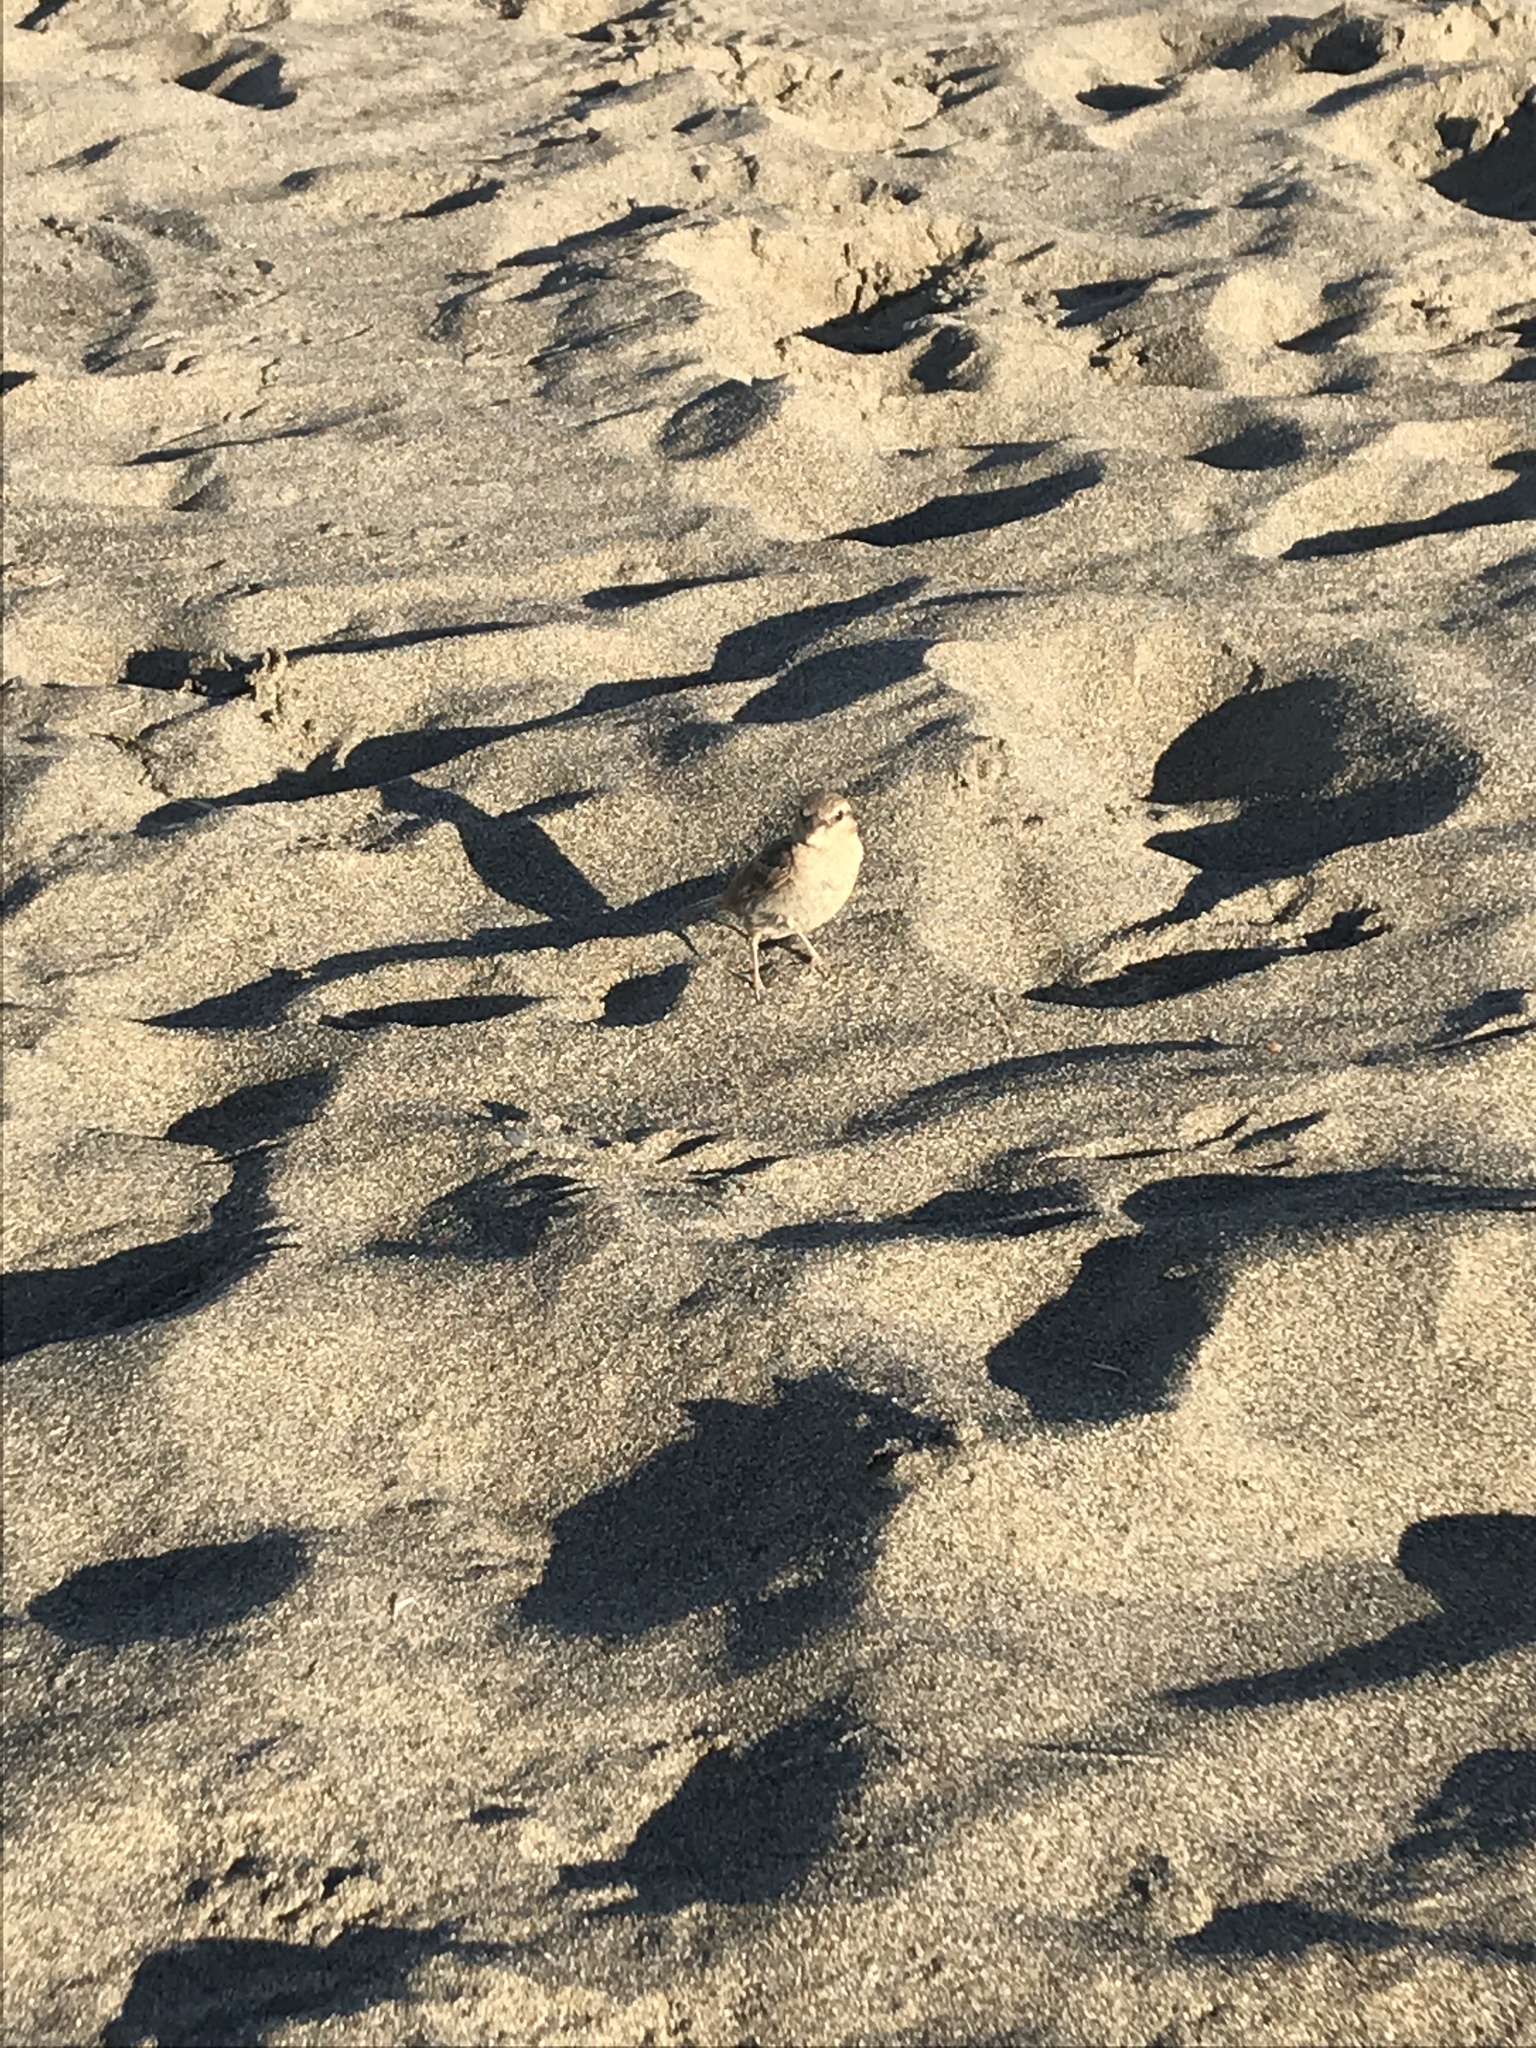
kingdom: Animalia
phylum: Chordata
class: Aves
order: Passeriformes
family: Passeridae
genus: Passer
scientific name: Passer italiae
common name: Italian sparrow
